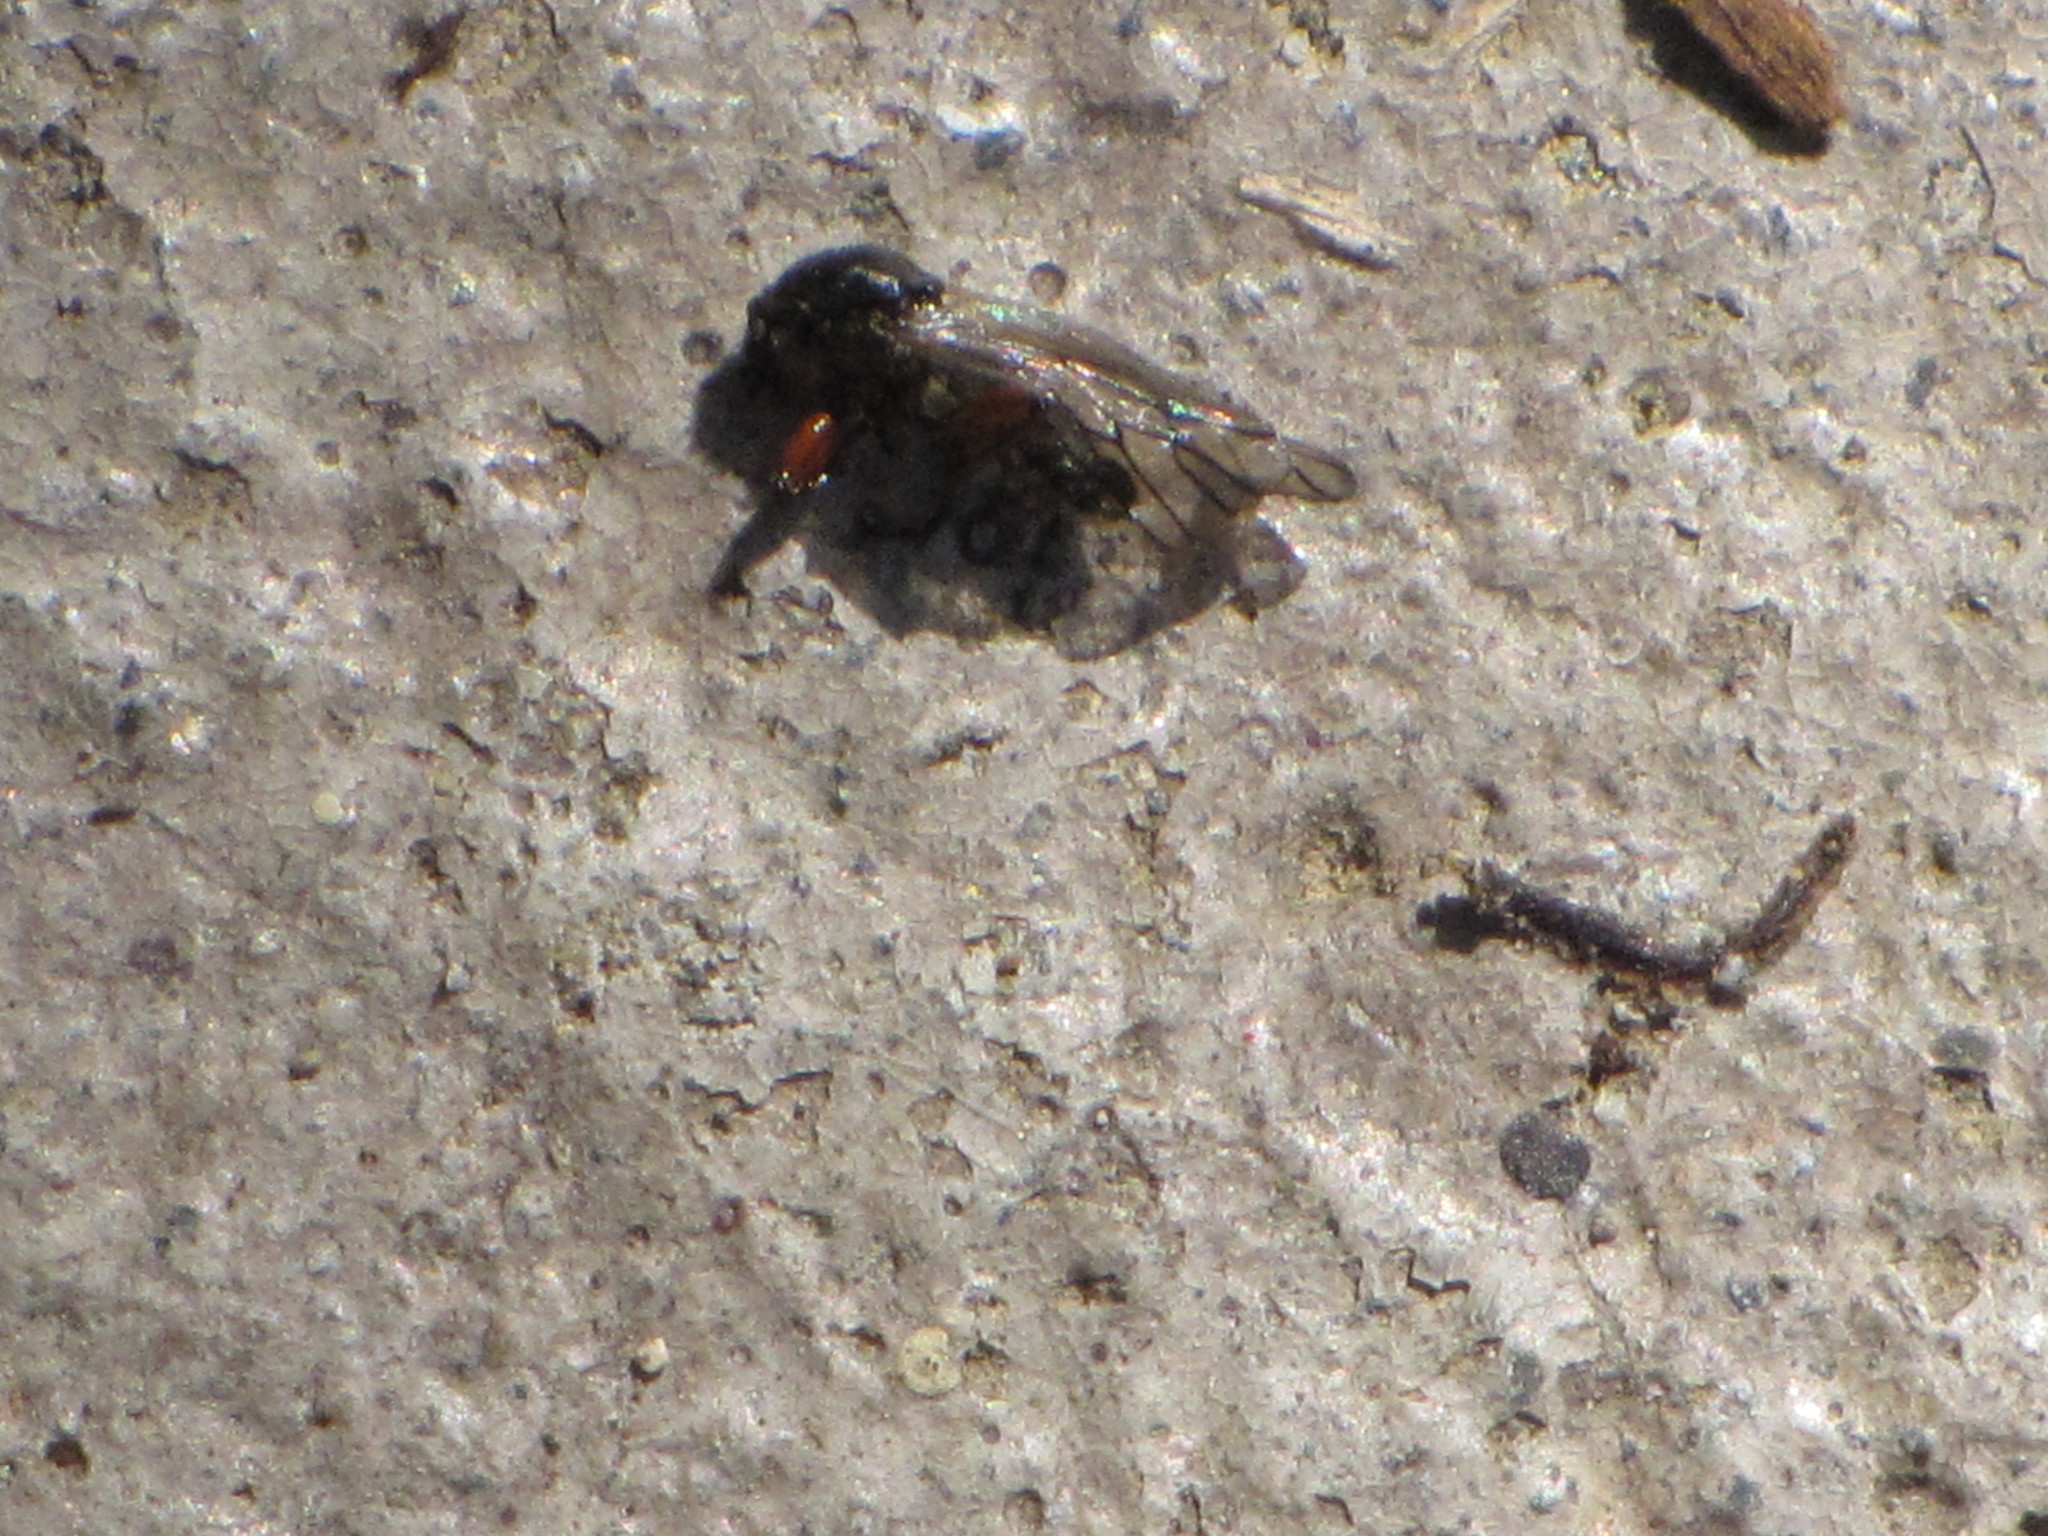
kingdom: Animalia
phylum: Arthropoda
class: Insecta
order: Diptera
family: Bibionidae
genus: Bibio
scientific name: Bibio
